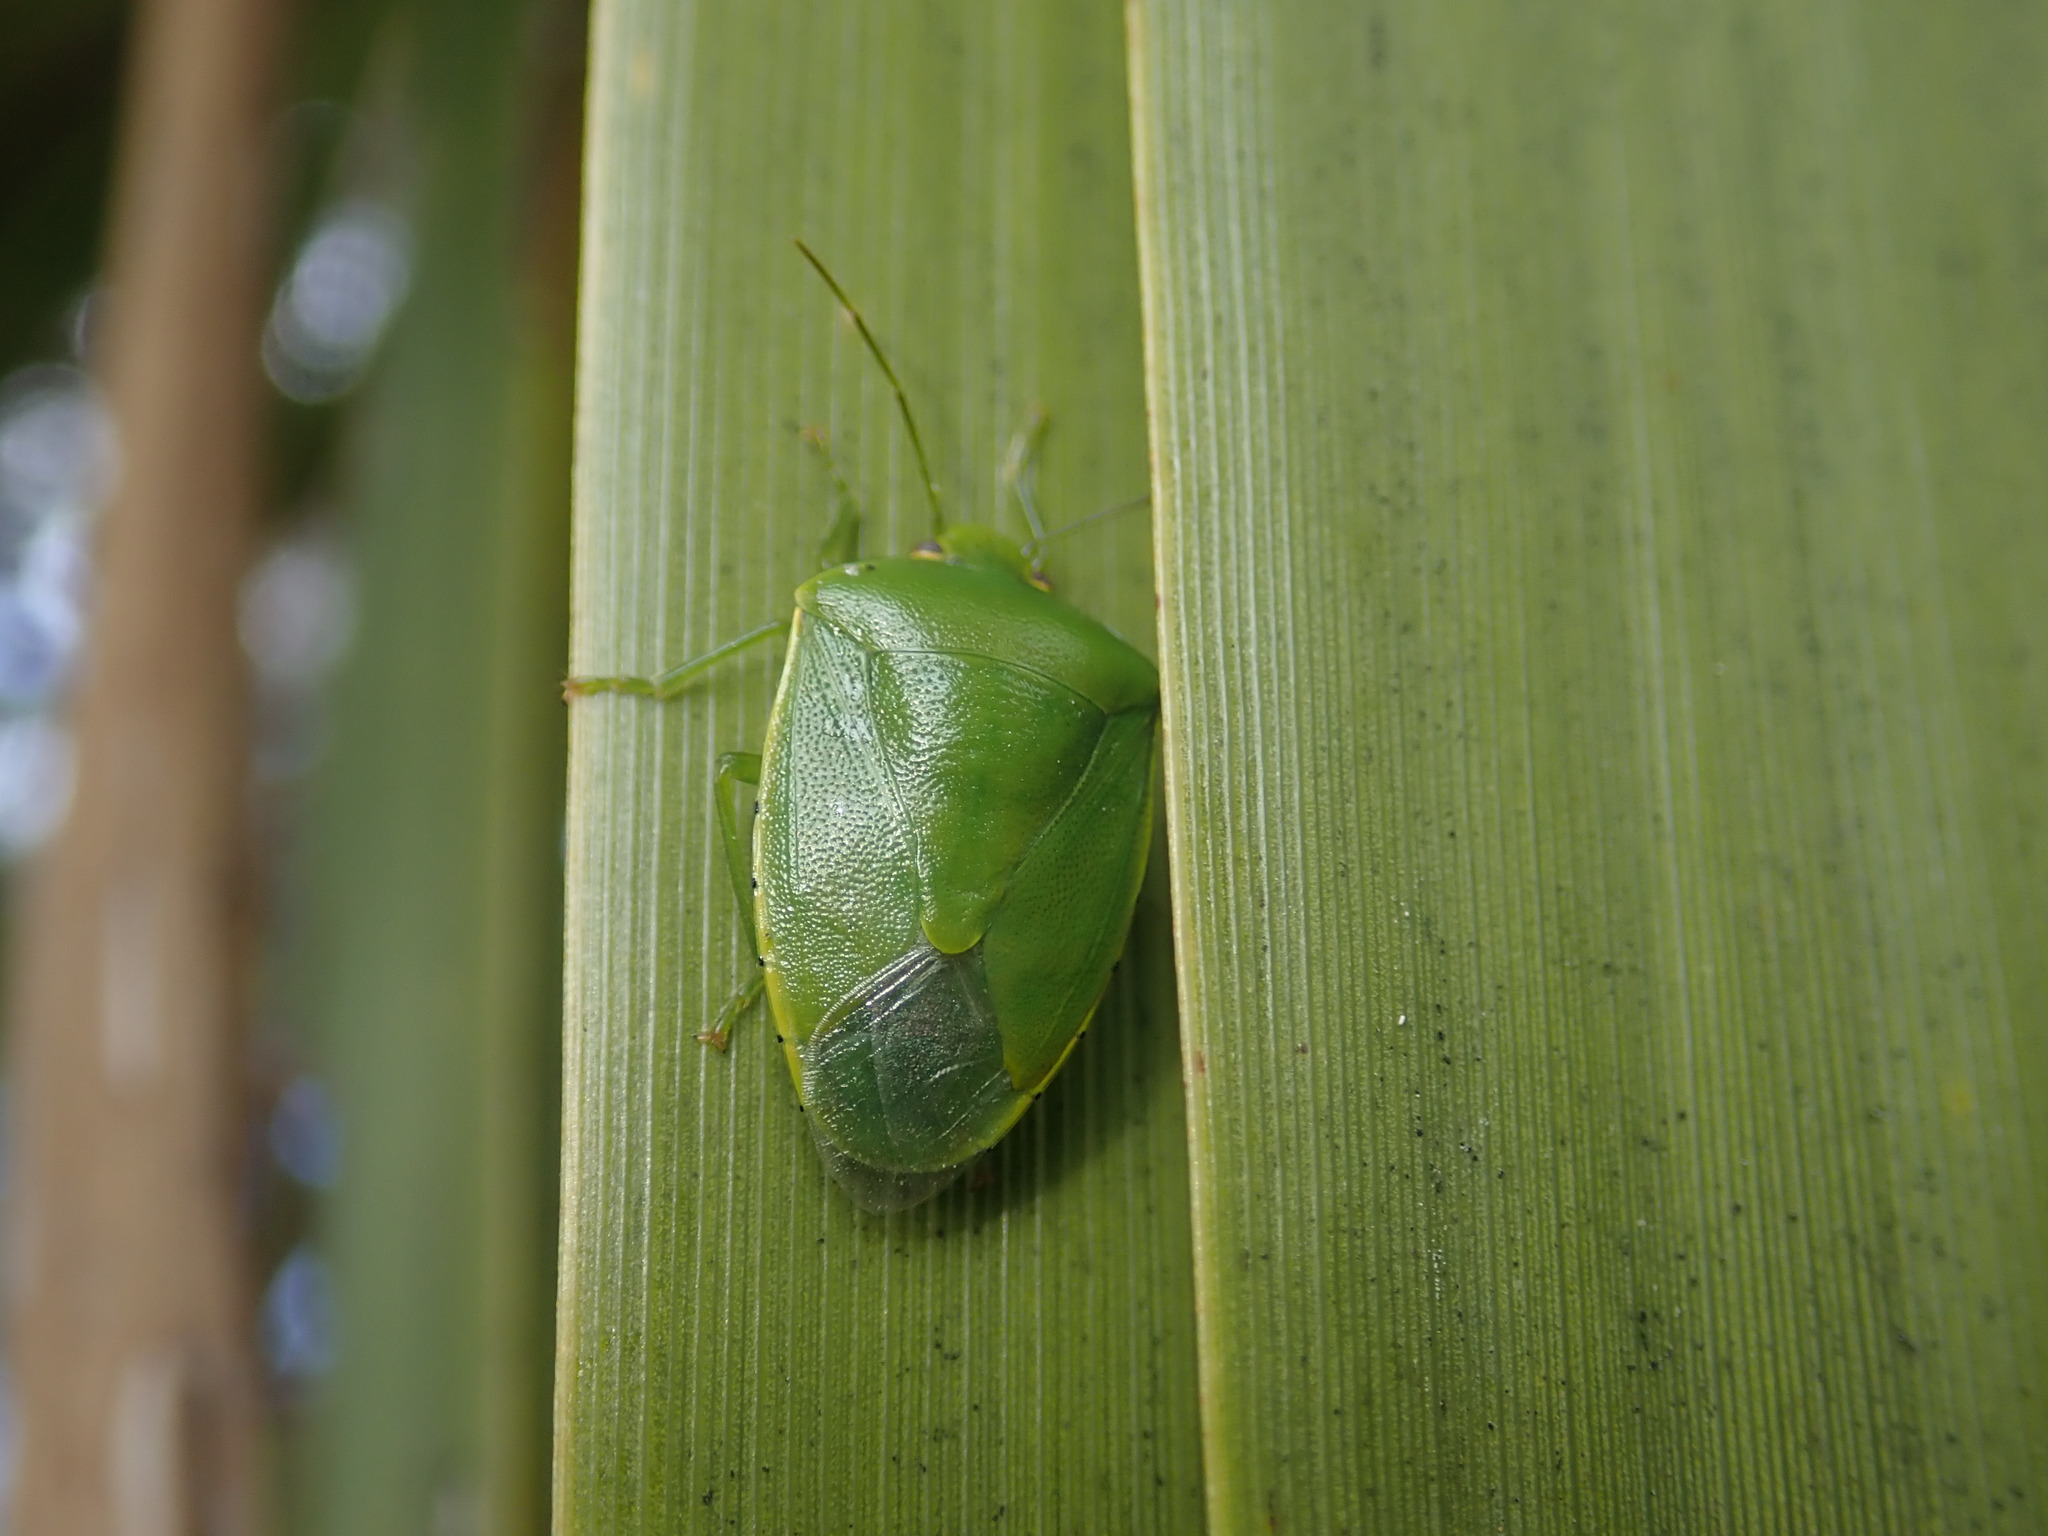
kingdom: Animalia
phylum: Arthropoda
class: Insecta
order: Hemiptera
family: Pentatomidae
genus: Glaucias
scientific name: Glaucias amyota
